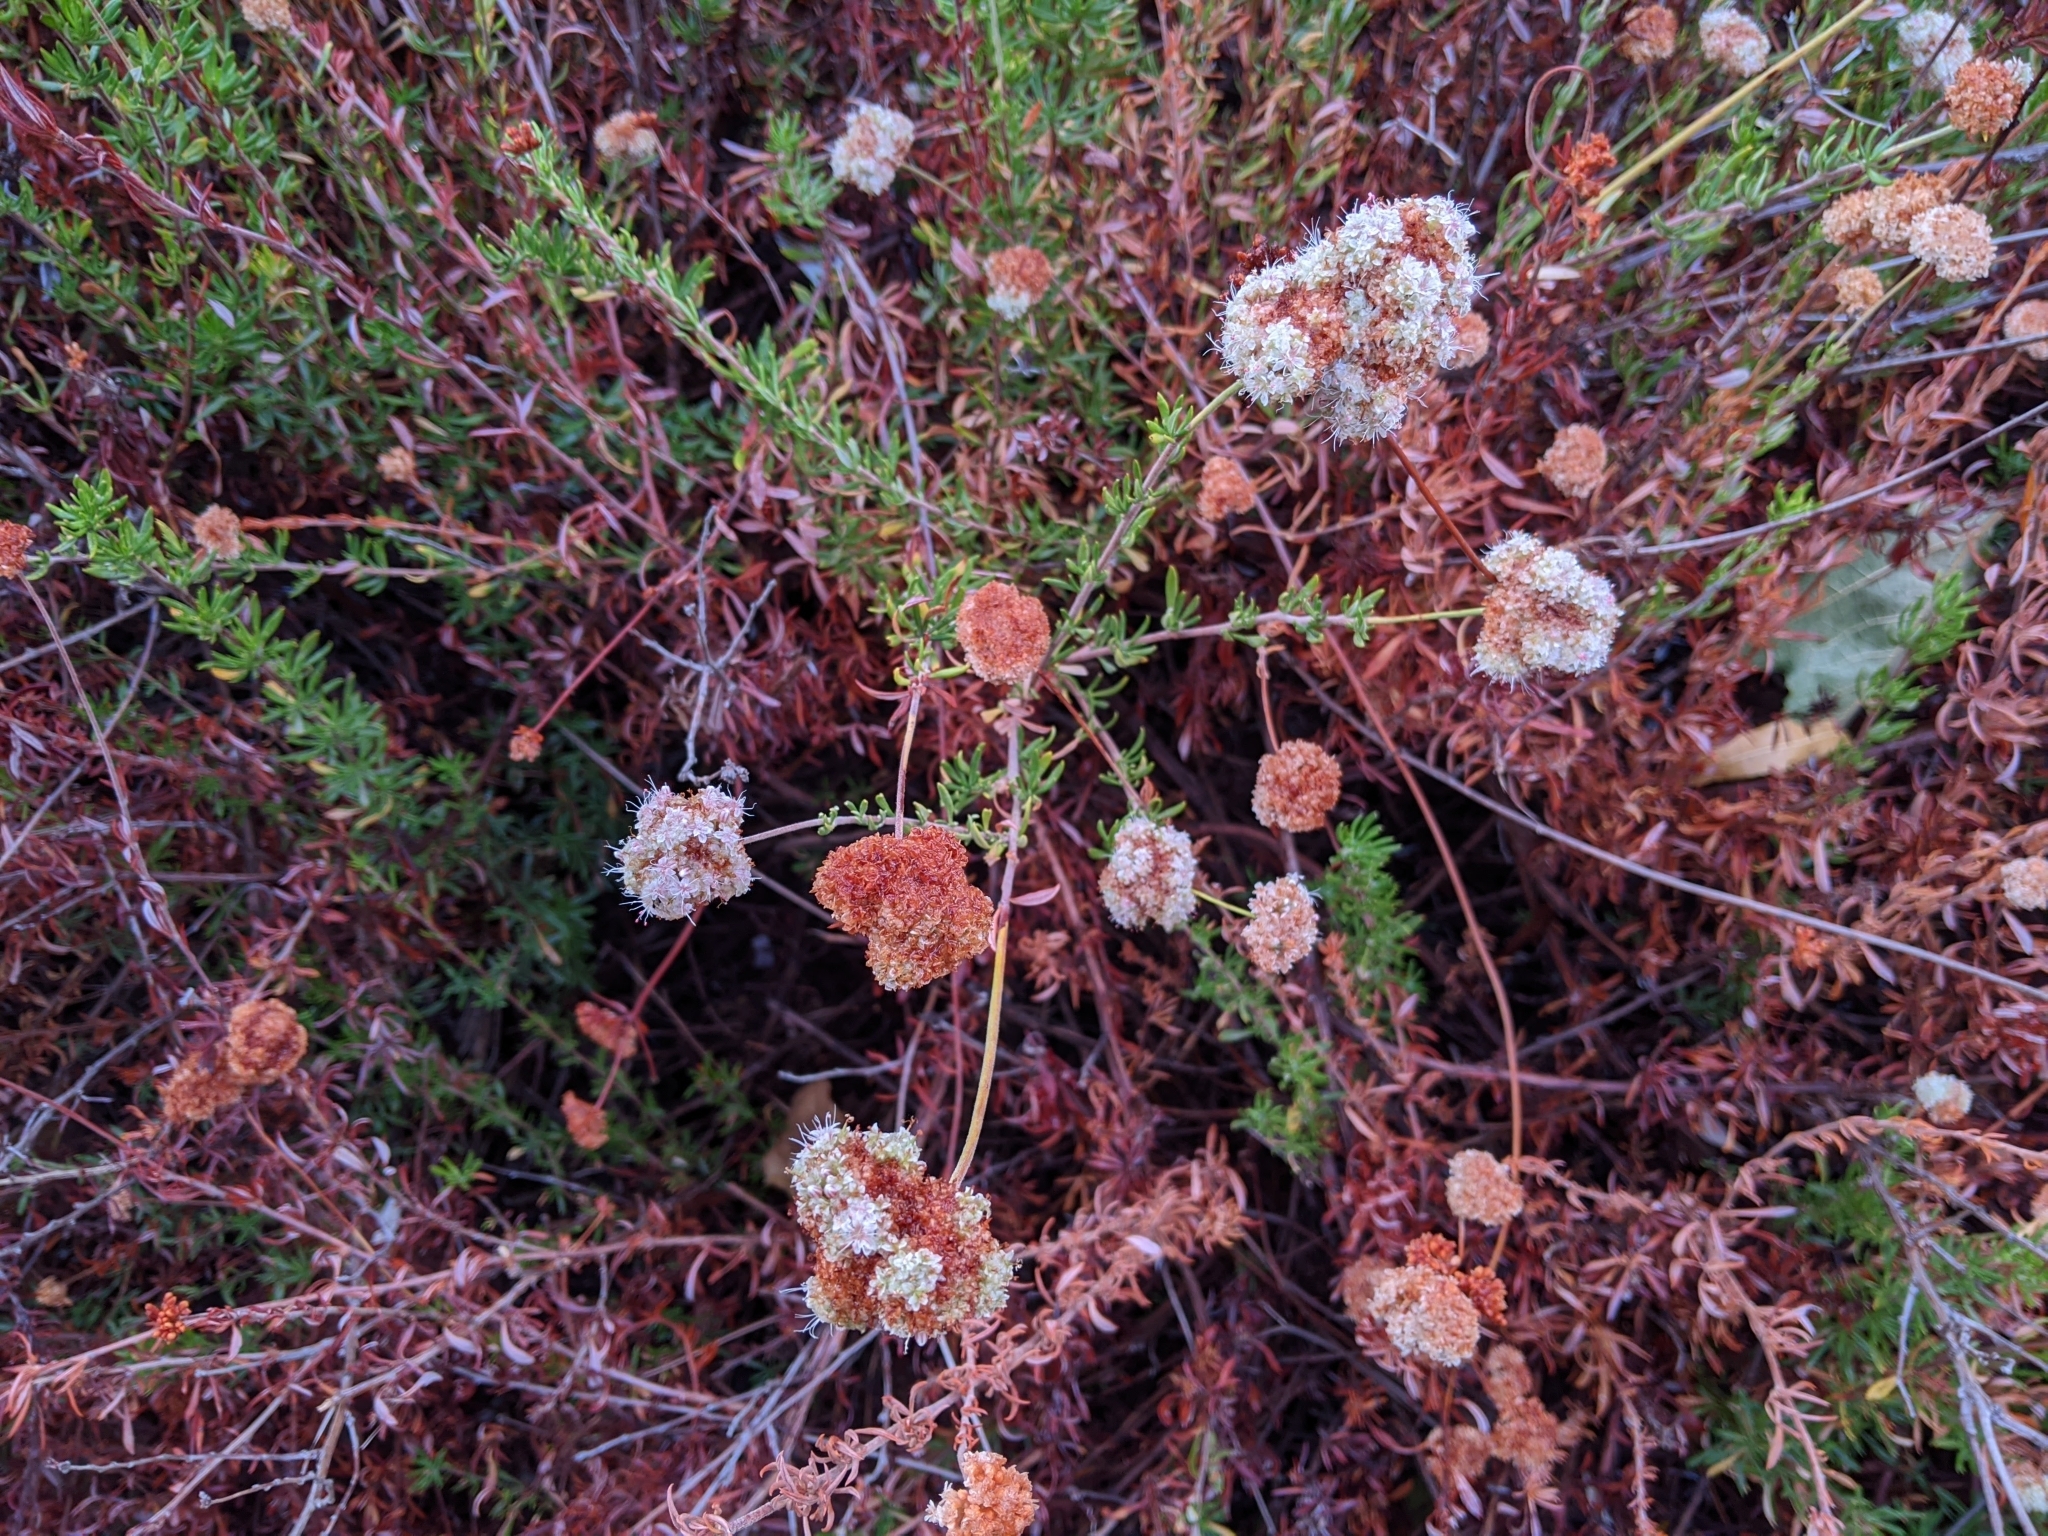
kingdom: Plantae
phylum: Tracheophyta
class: Magnoliopsida
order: Caryophyllales
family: Polygonaceae
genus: Eriogonum
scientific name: Eriogonum fasciculatum
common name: California wild buckwheat
